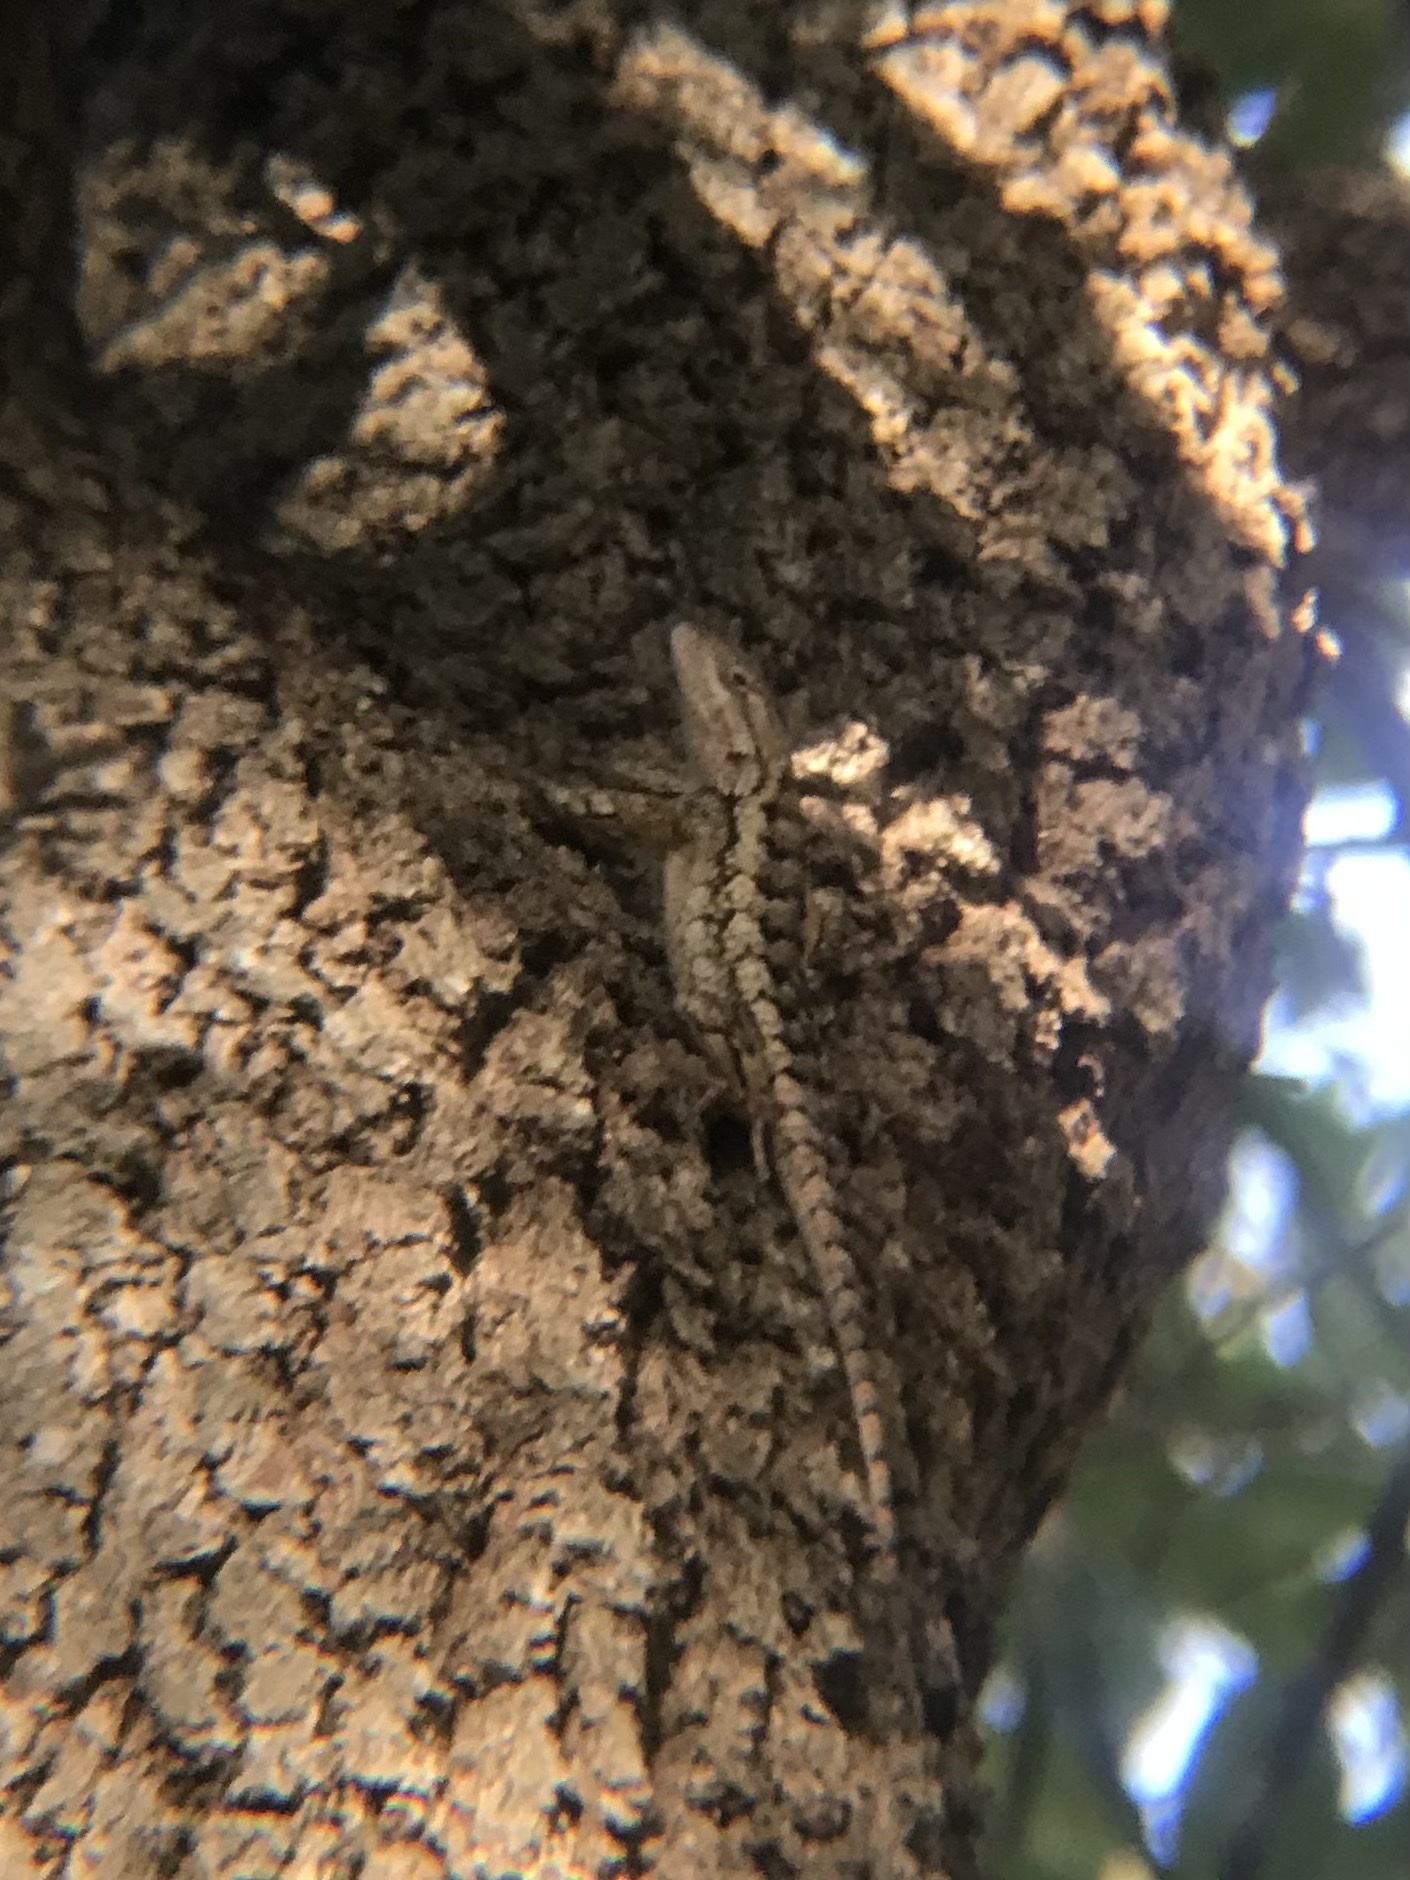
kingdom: Animalia
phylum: Chordata
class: Squamata
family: Phrynosomatidae
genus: Sceloporus
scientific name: Sceloporus olivaceus
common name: Texas spiny lizard
